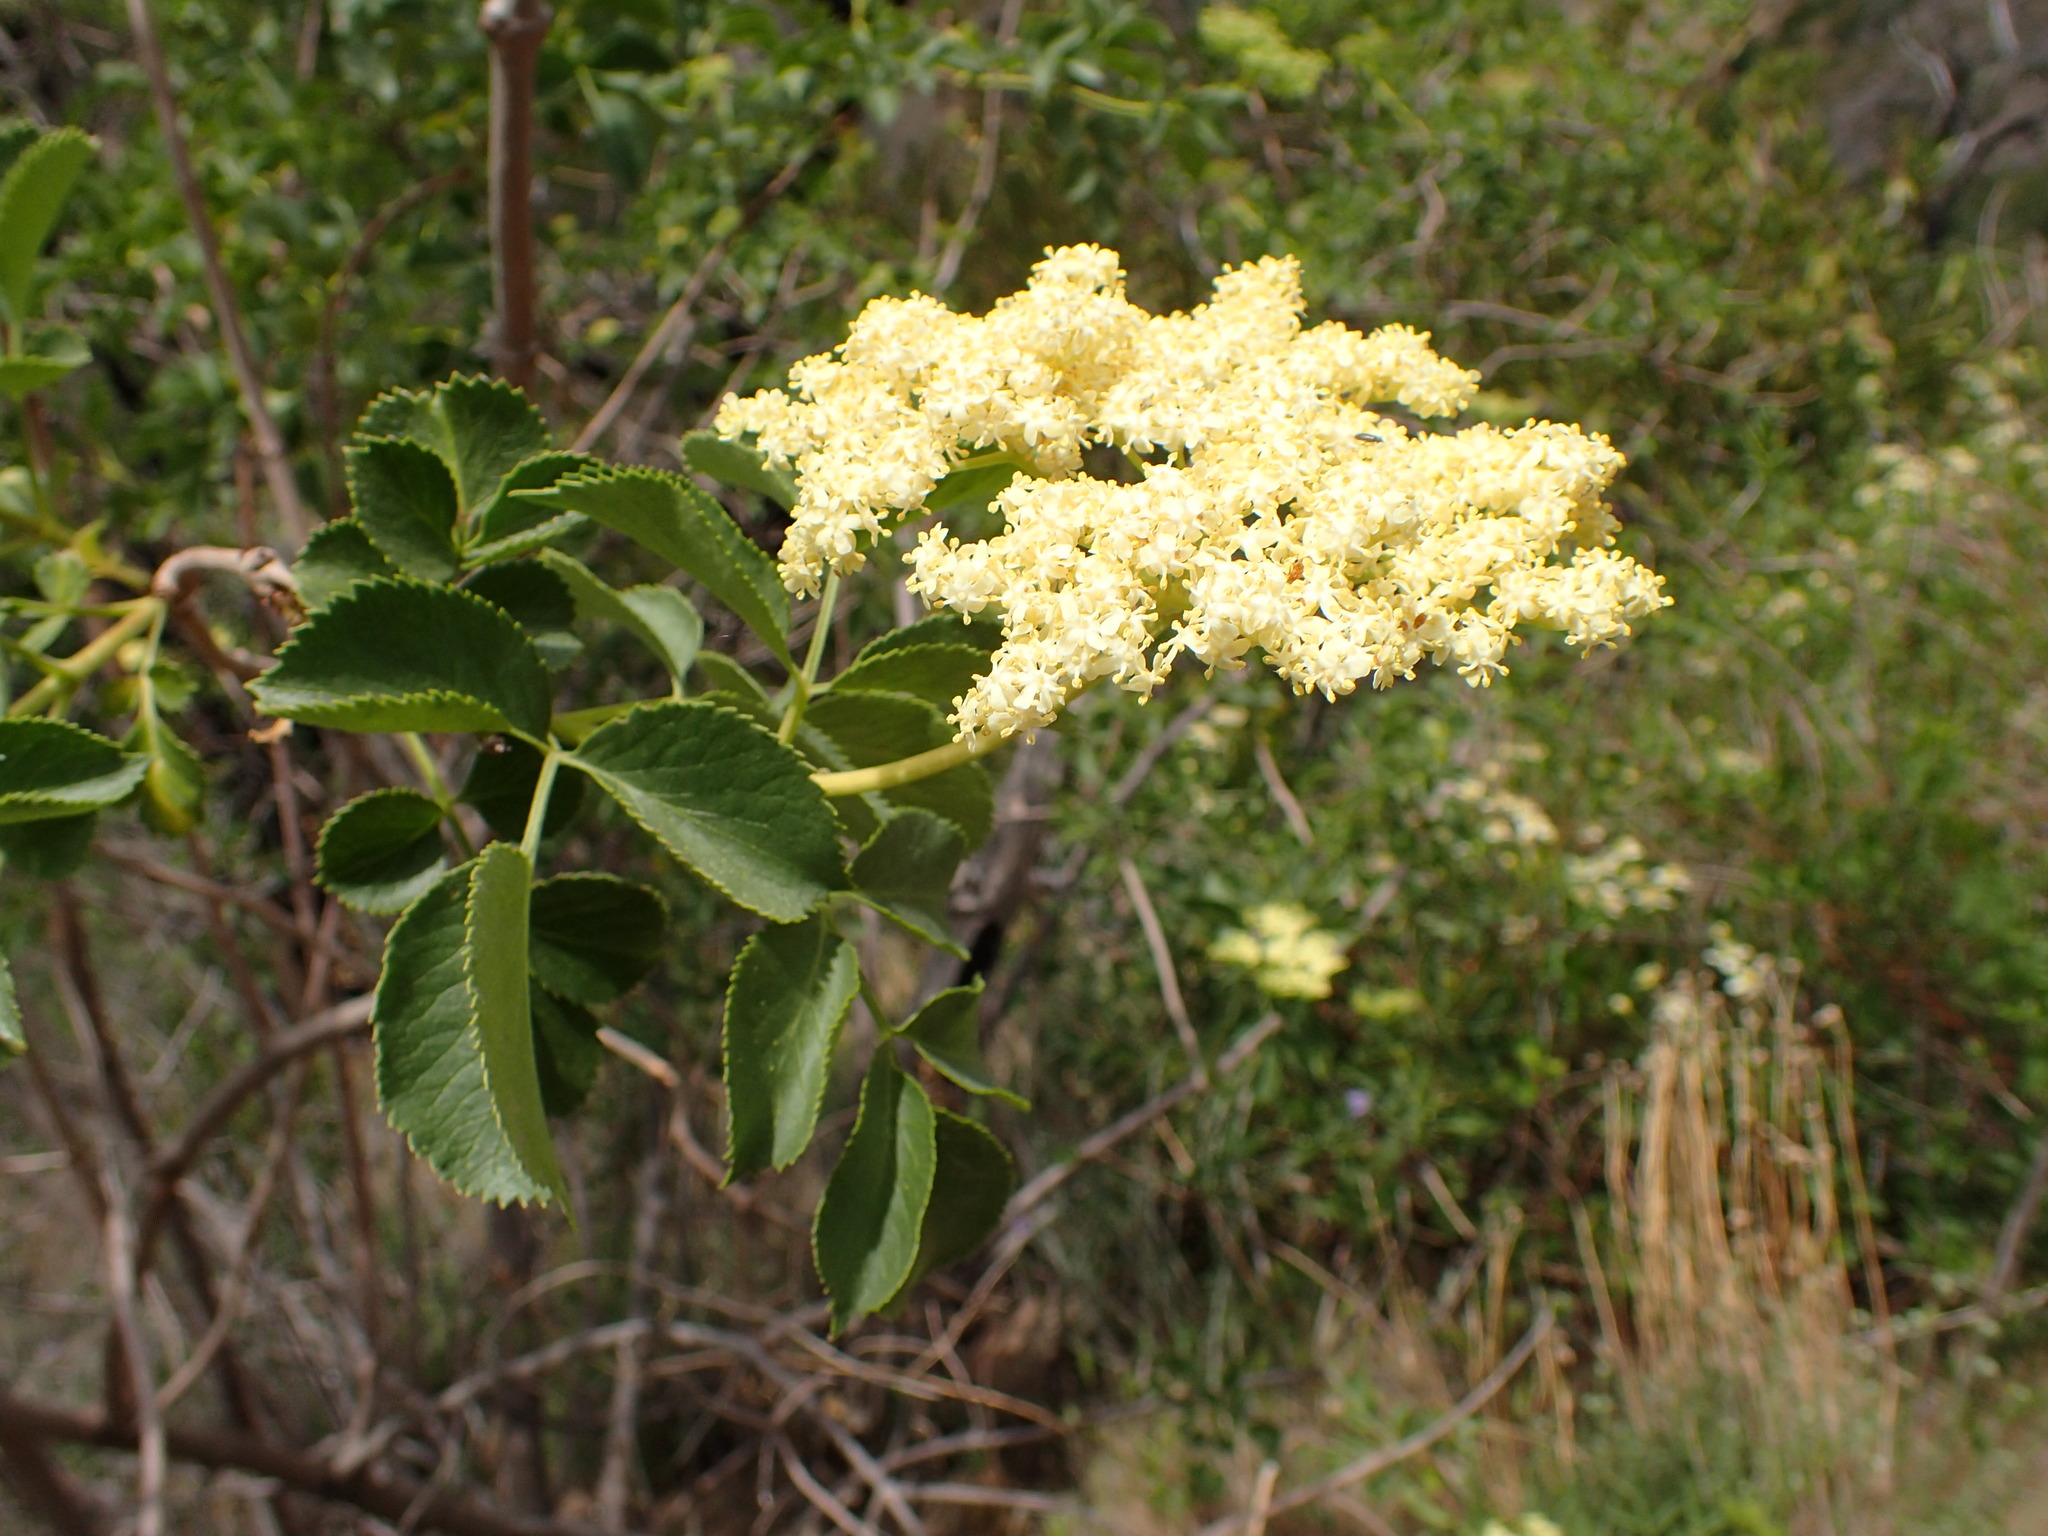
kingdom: Plantae
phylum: Tracheophyta
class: Magnoliopsida
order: Dipsacales
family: Viburnaceae
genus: Sambucus
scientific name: Sambucus cerulea
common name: Blue elder
